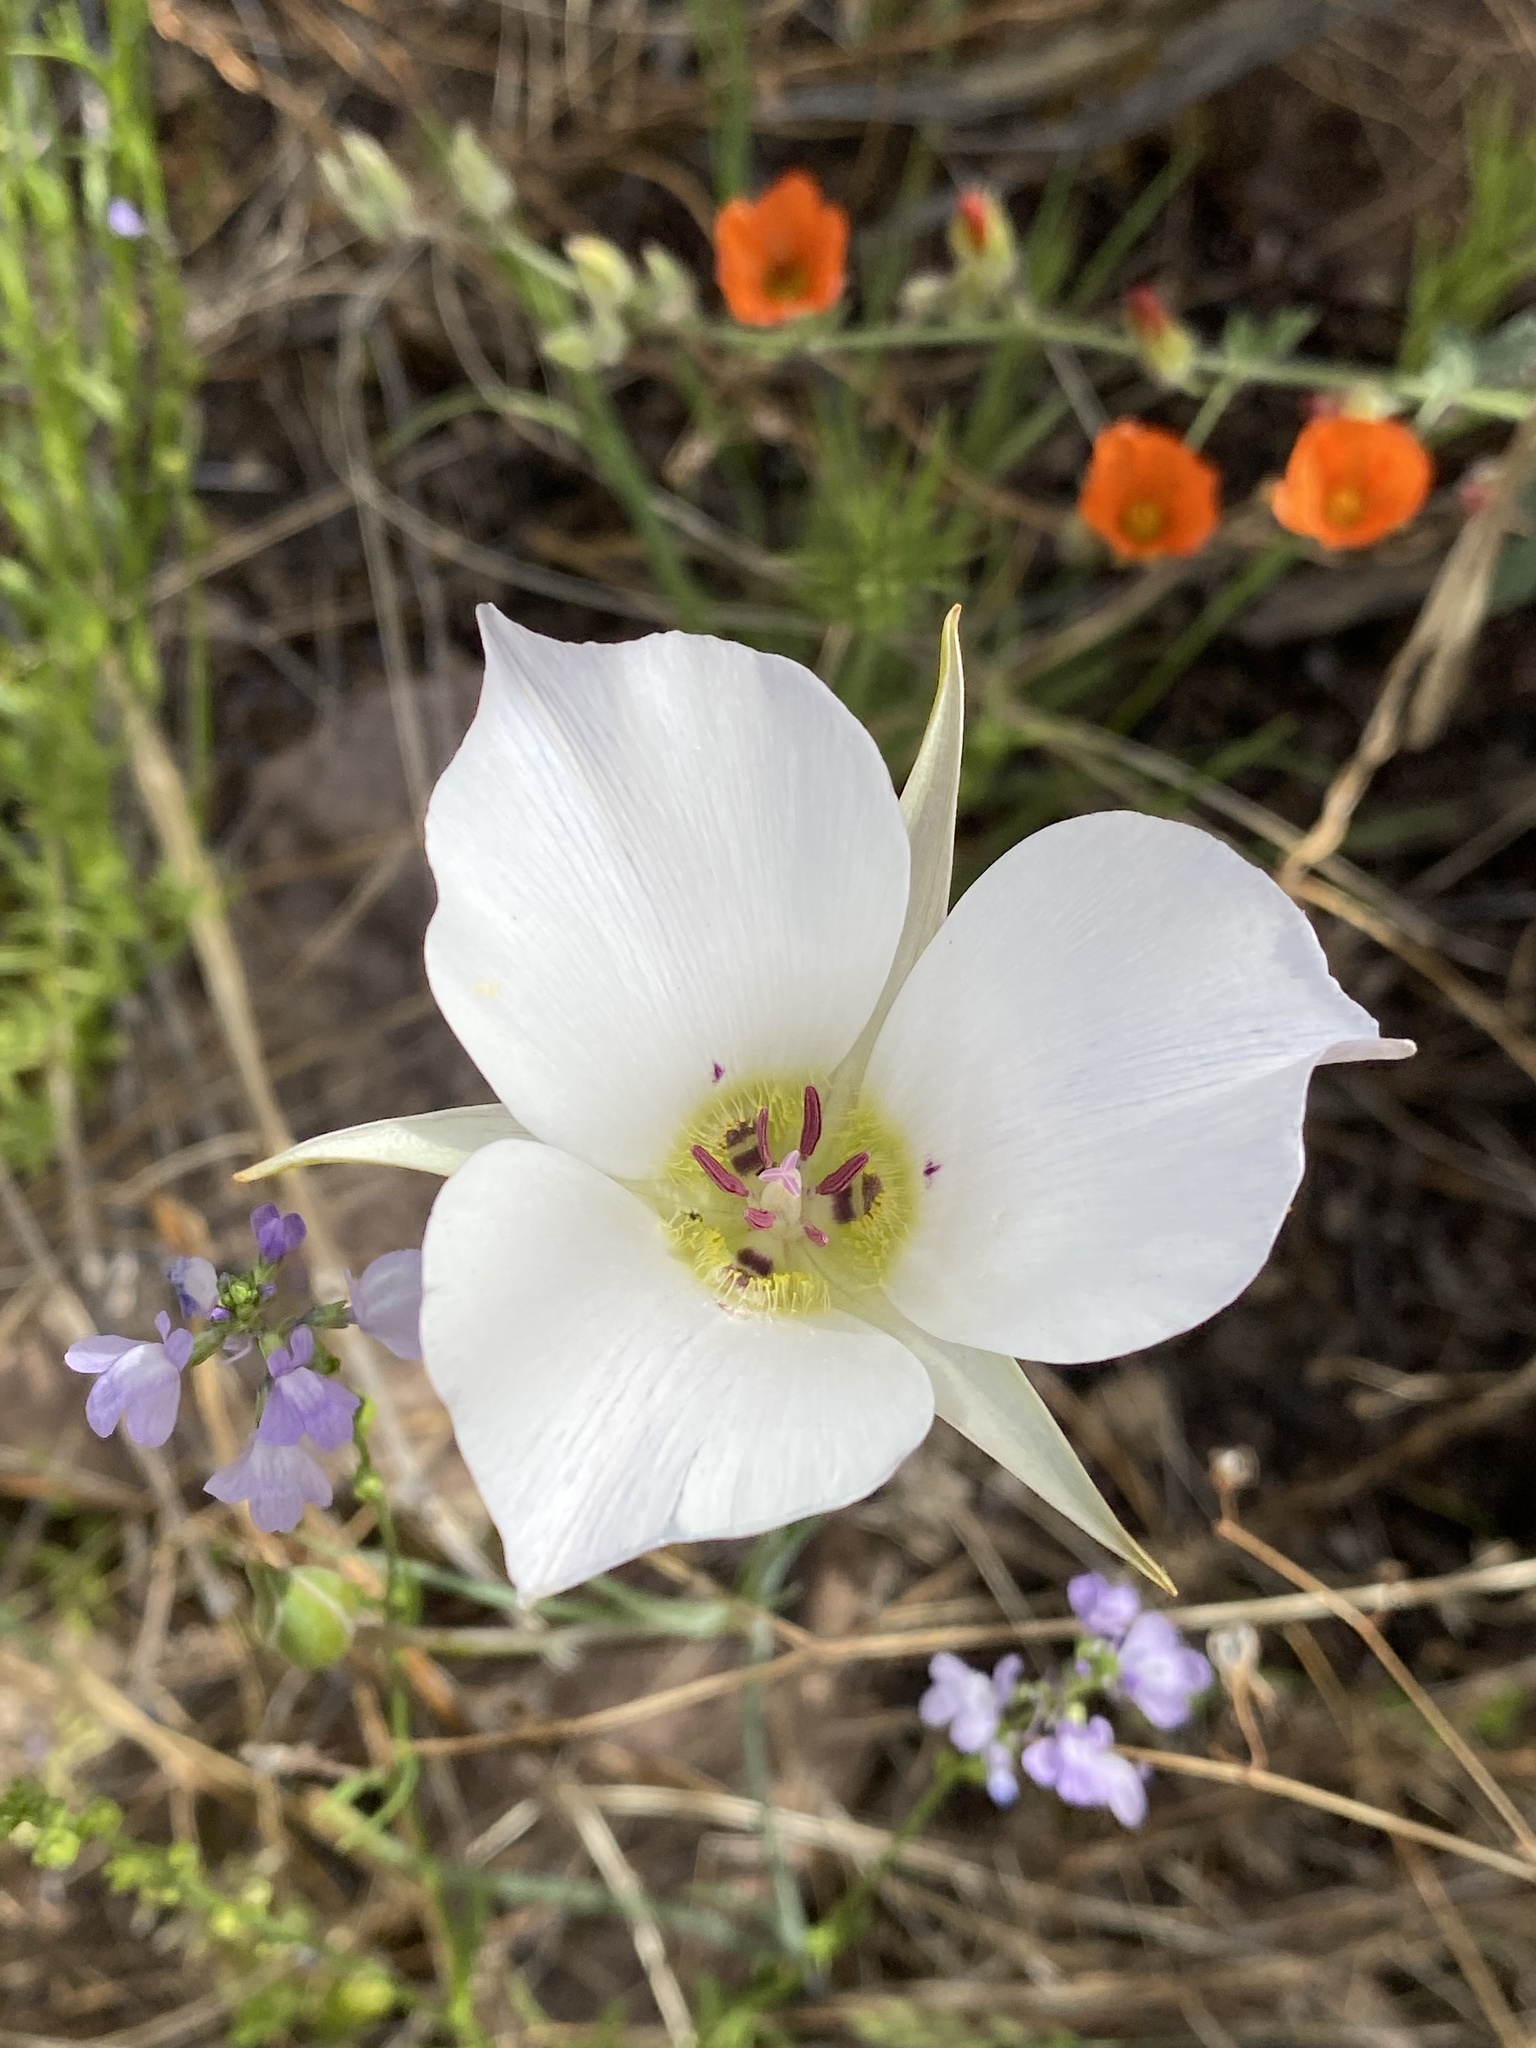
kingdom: Plantae
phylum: Tracheophyta
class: Liliopsida
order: Liliales
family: Liliaceae
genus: Calochortus
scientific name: Calochortus ambiguus
